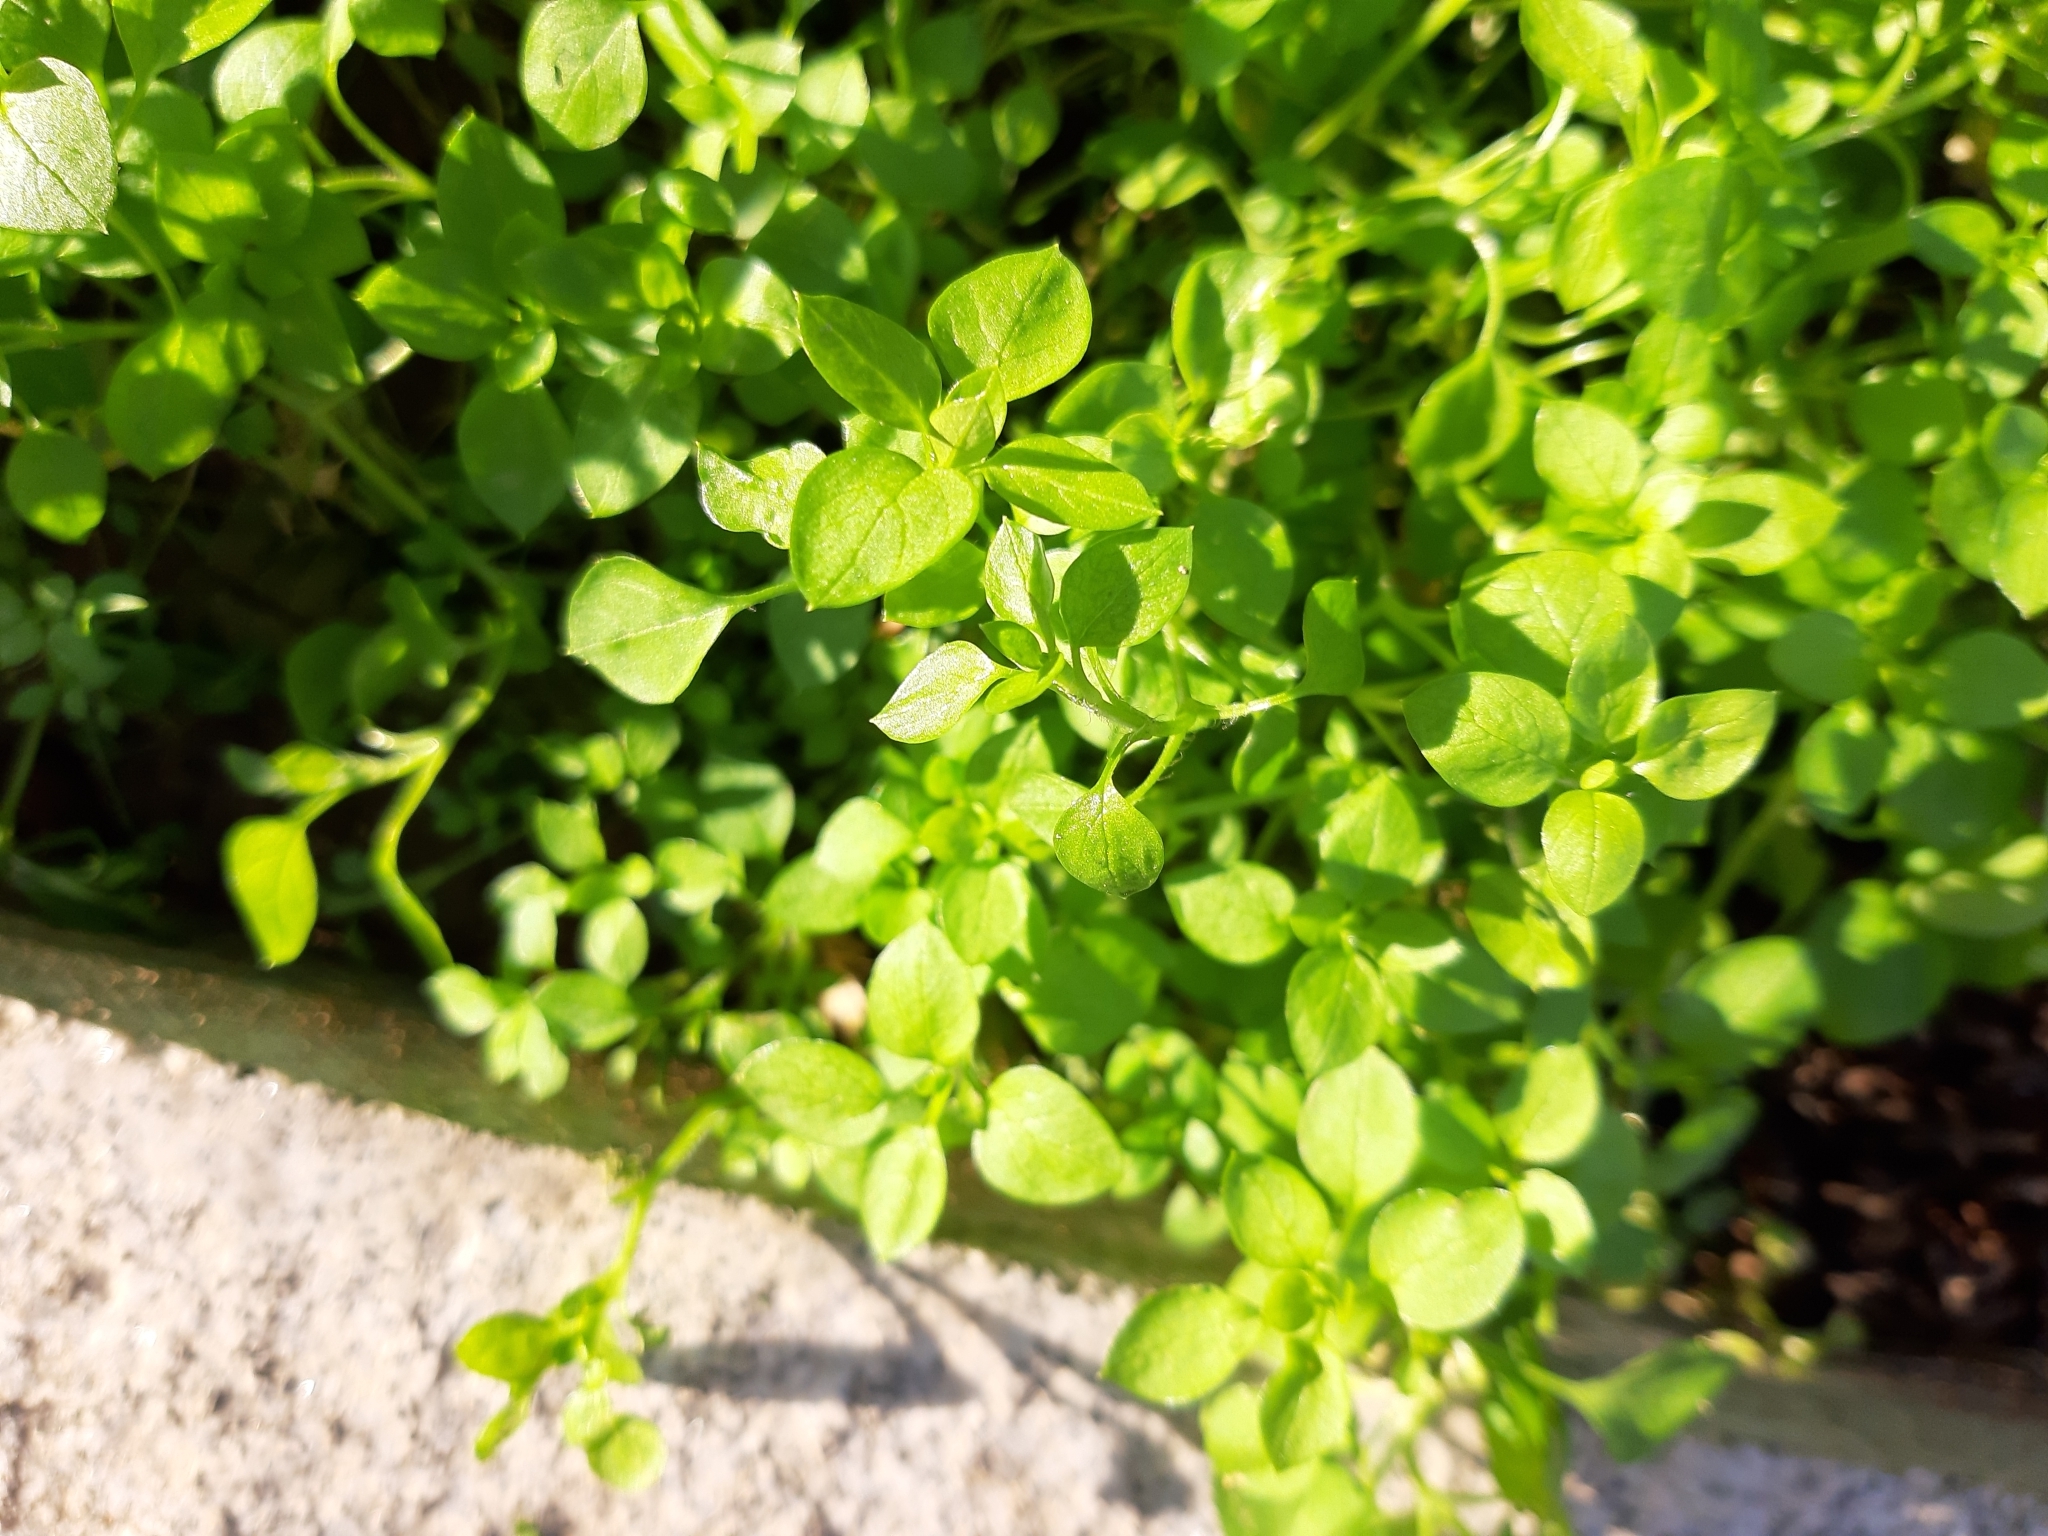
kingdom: Plantae
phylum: Tracheophyta
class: Magnoliopsida
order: Caryophyllales
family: Caryophyllaceae
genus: Stellaria
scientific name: Stellaria media
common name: Common chickweed
